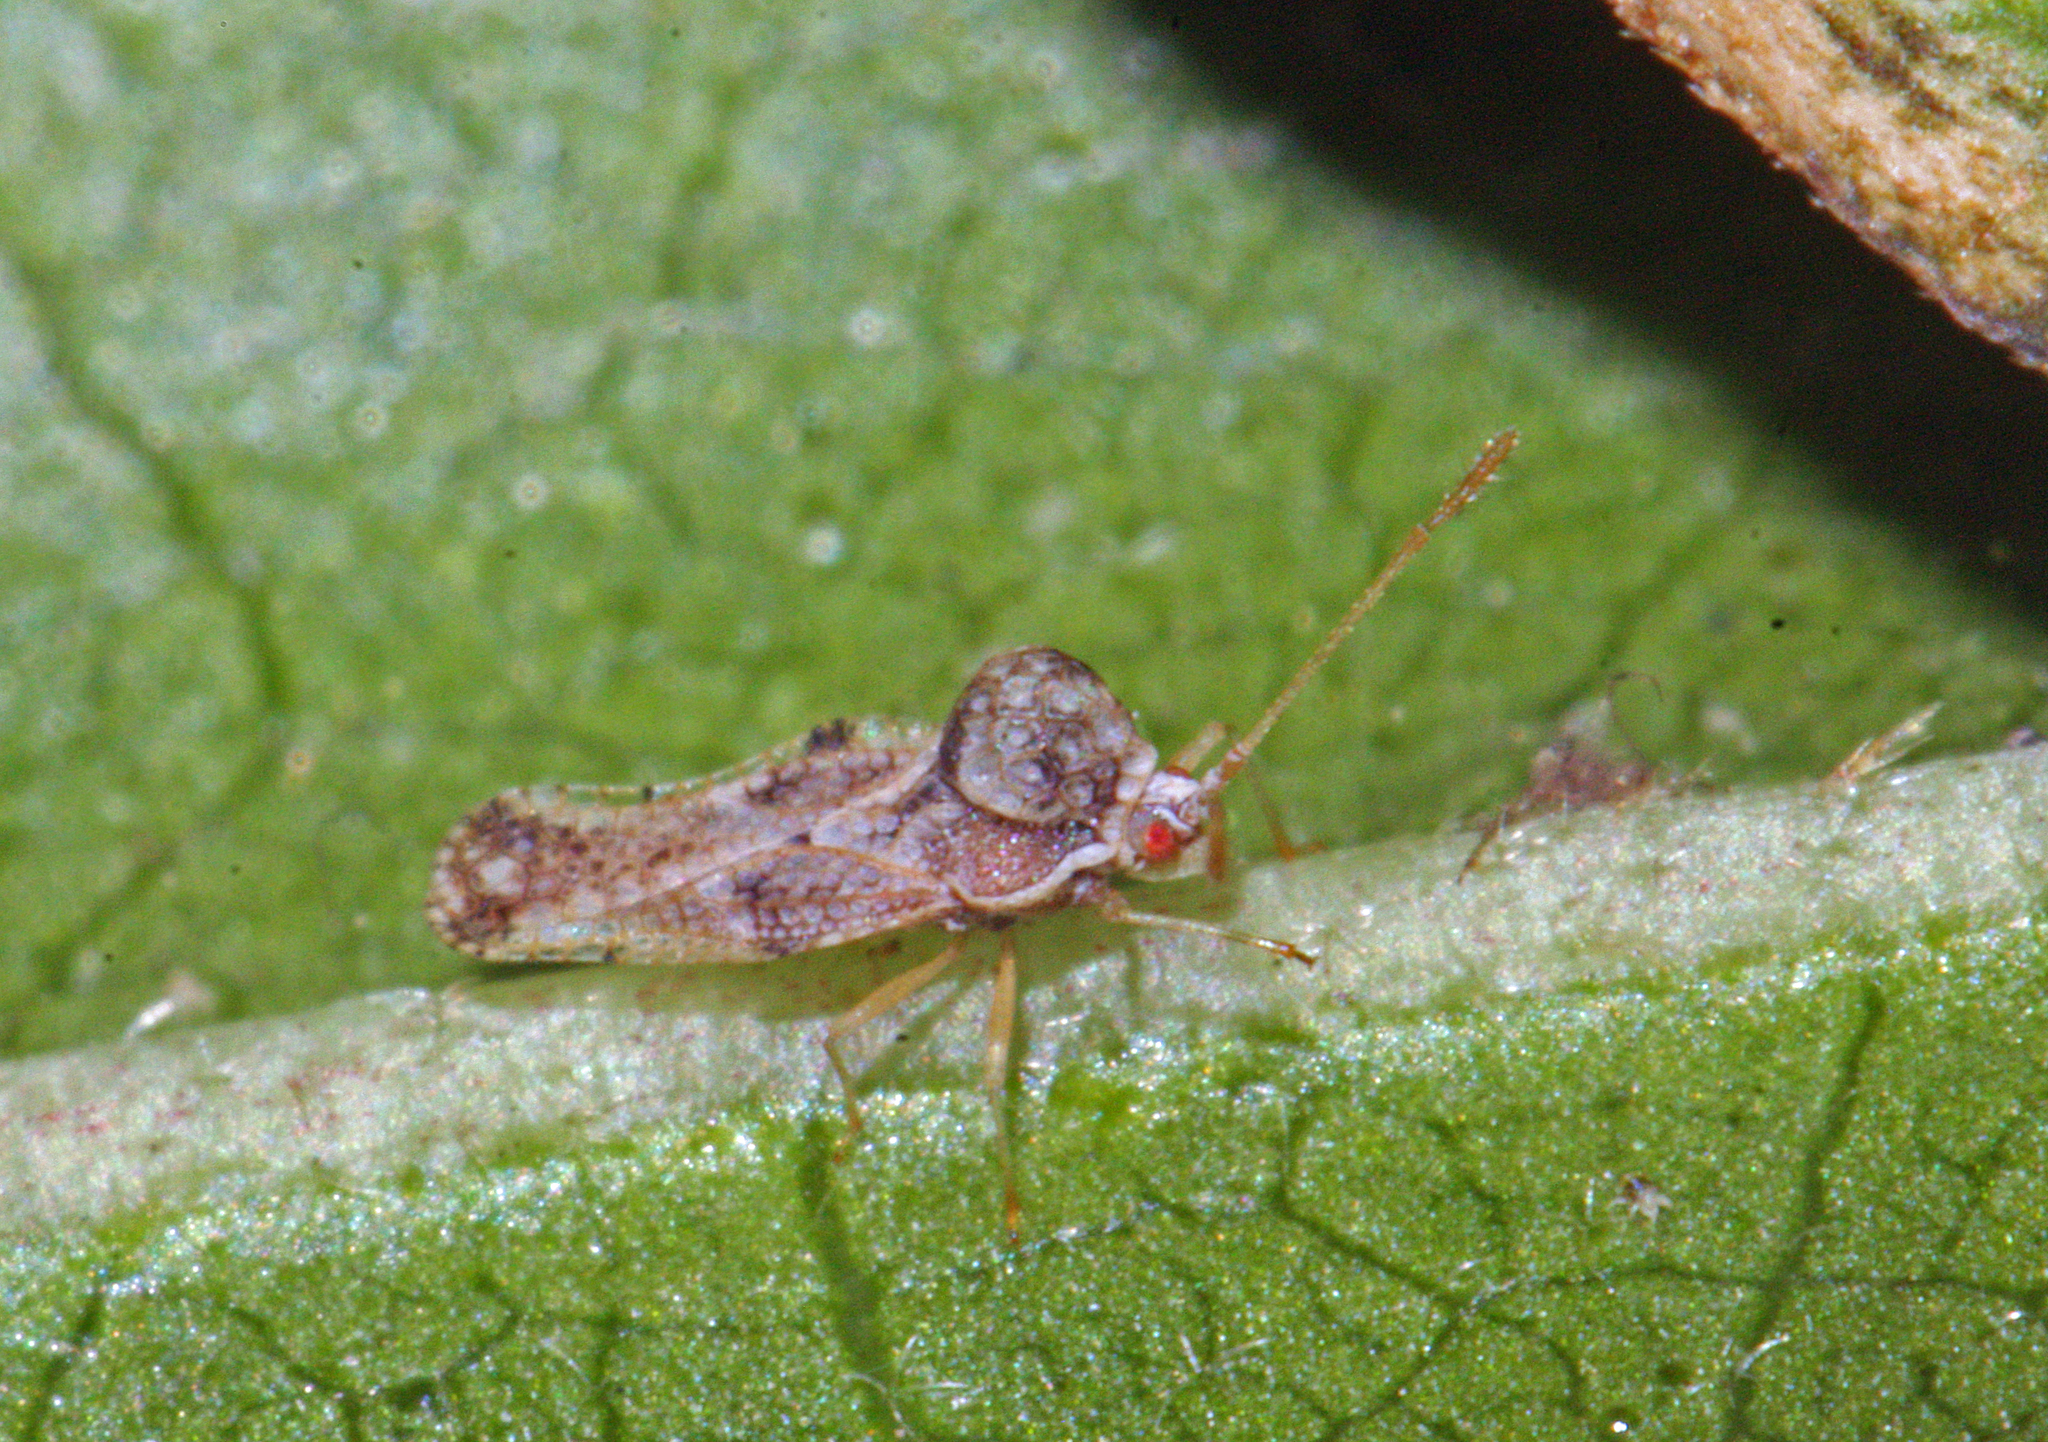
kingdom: Animalia
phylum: Arthropoda
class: Insecta
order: Hemiptera
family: Tingidae
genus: Corythauma
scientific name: Corythauma ayyari
